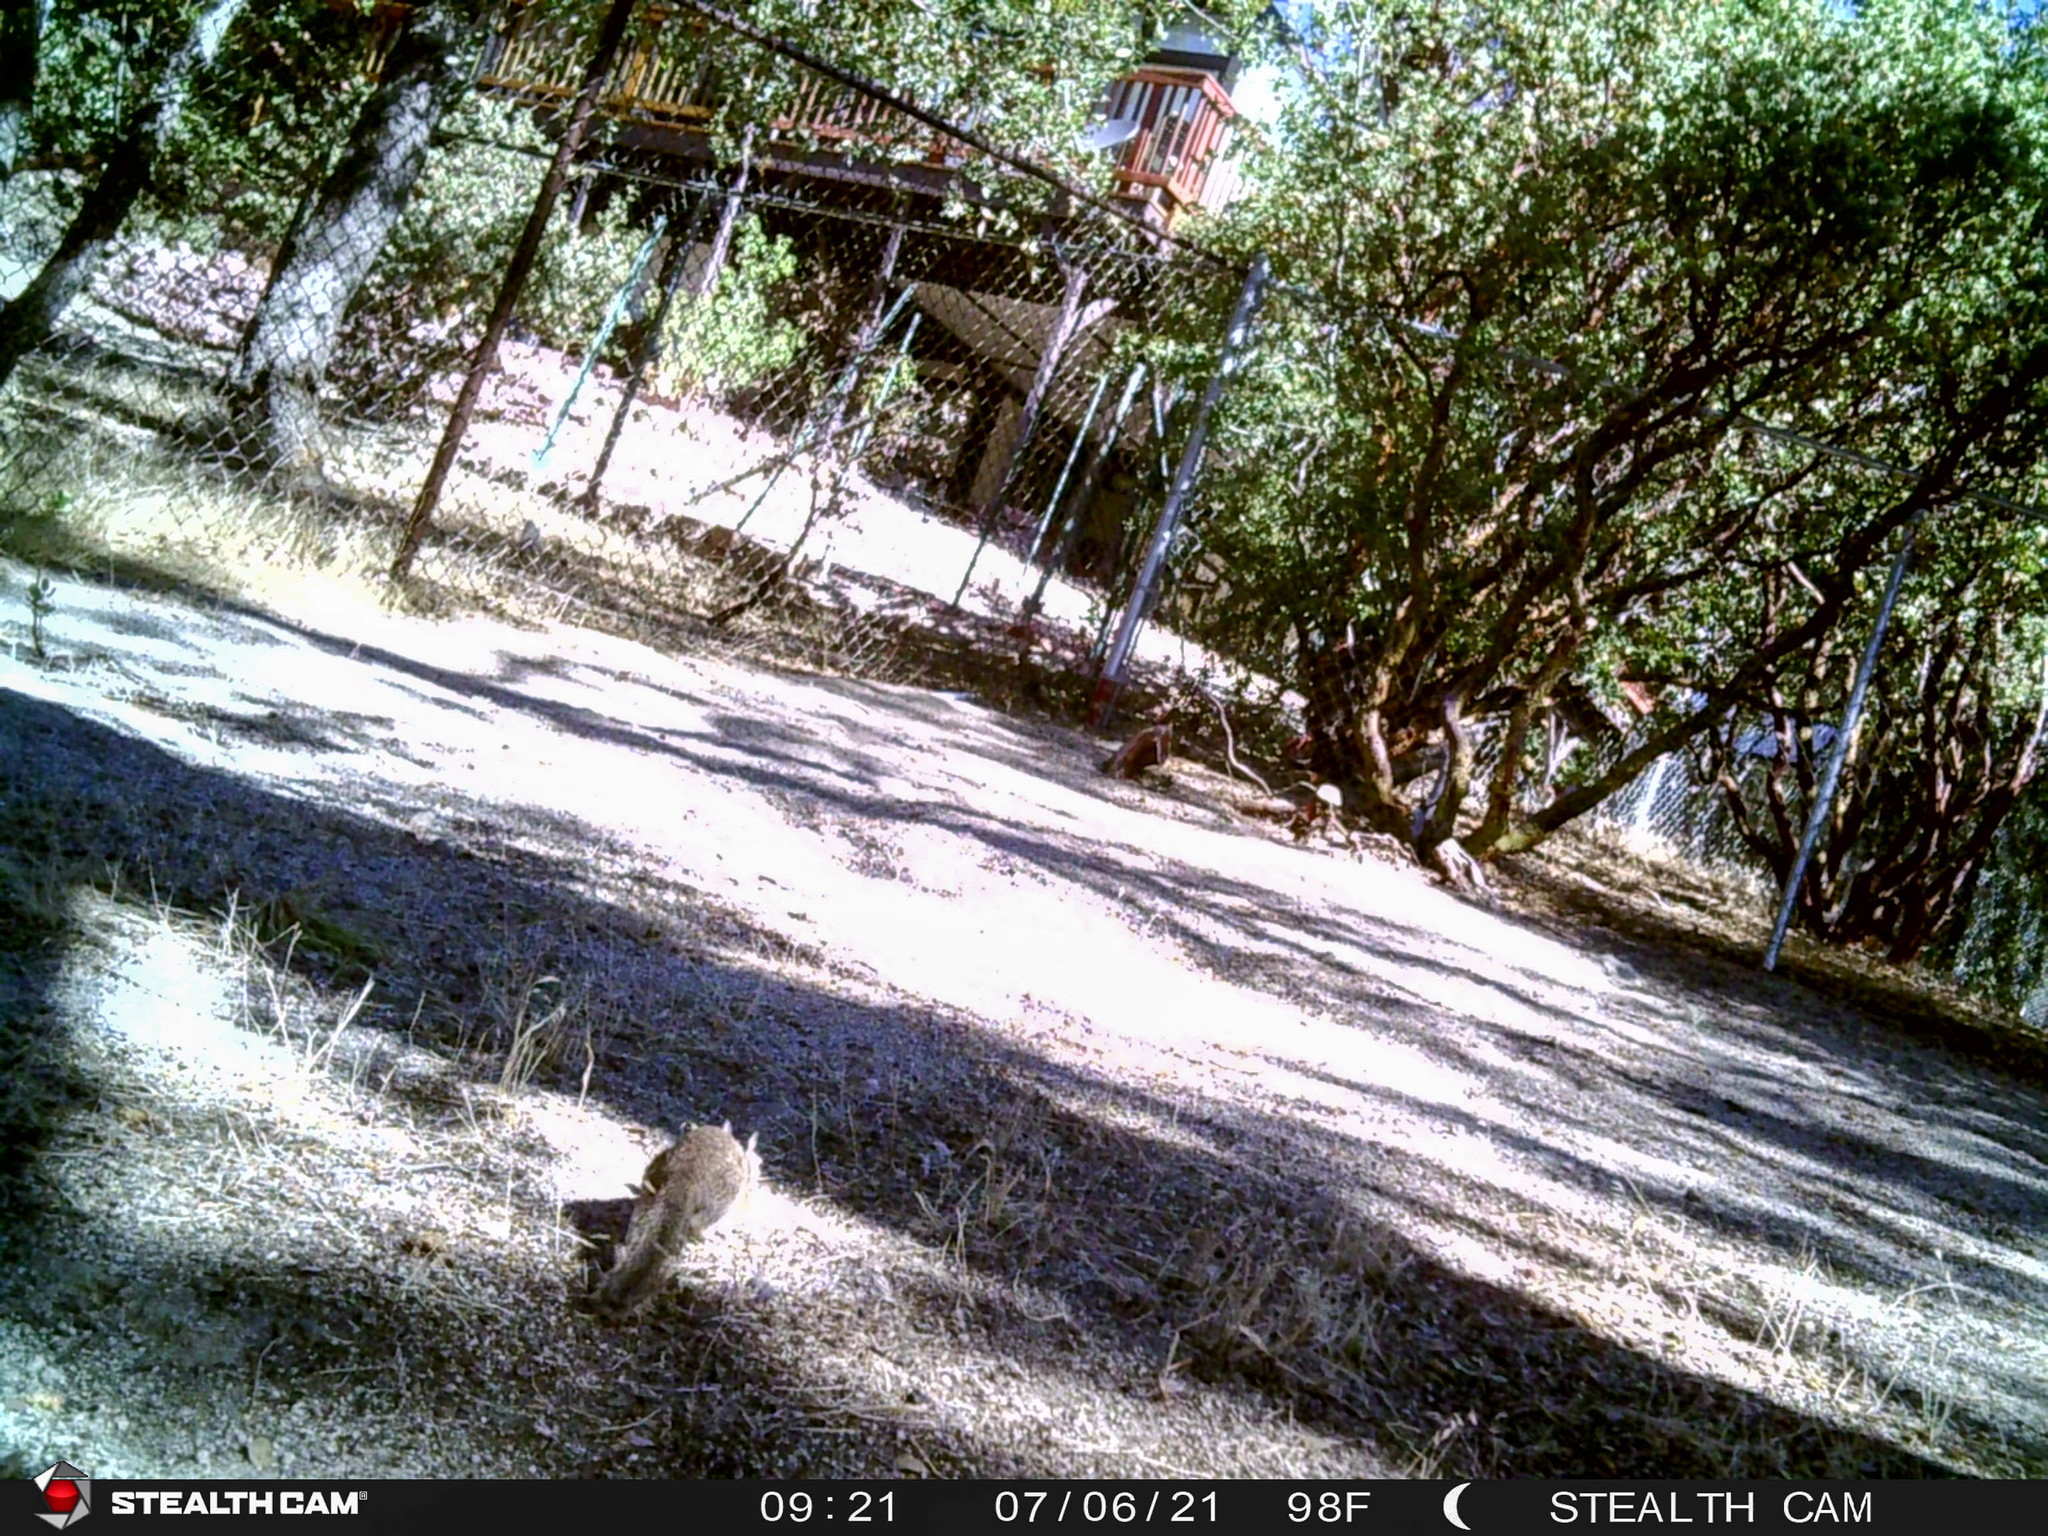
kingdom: Animalia
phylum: Chordata
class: Mammalia
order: Rodentia
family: Sciuridae
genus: Otospermophilus
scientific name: Otospermophilus beecheyi
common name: California ground squirrel
